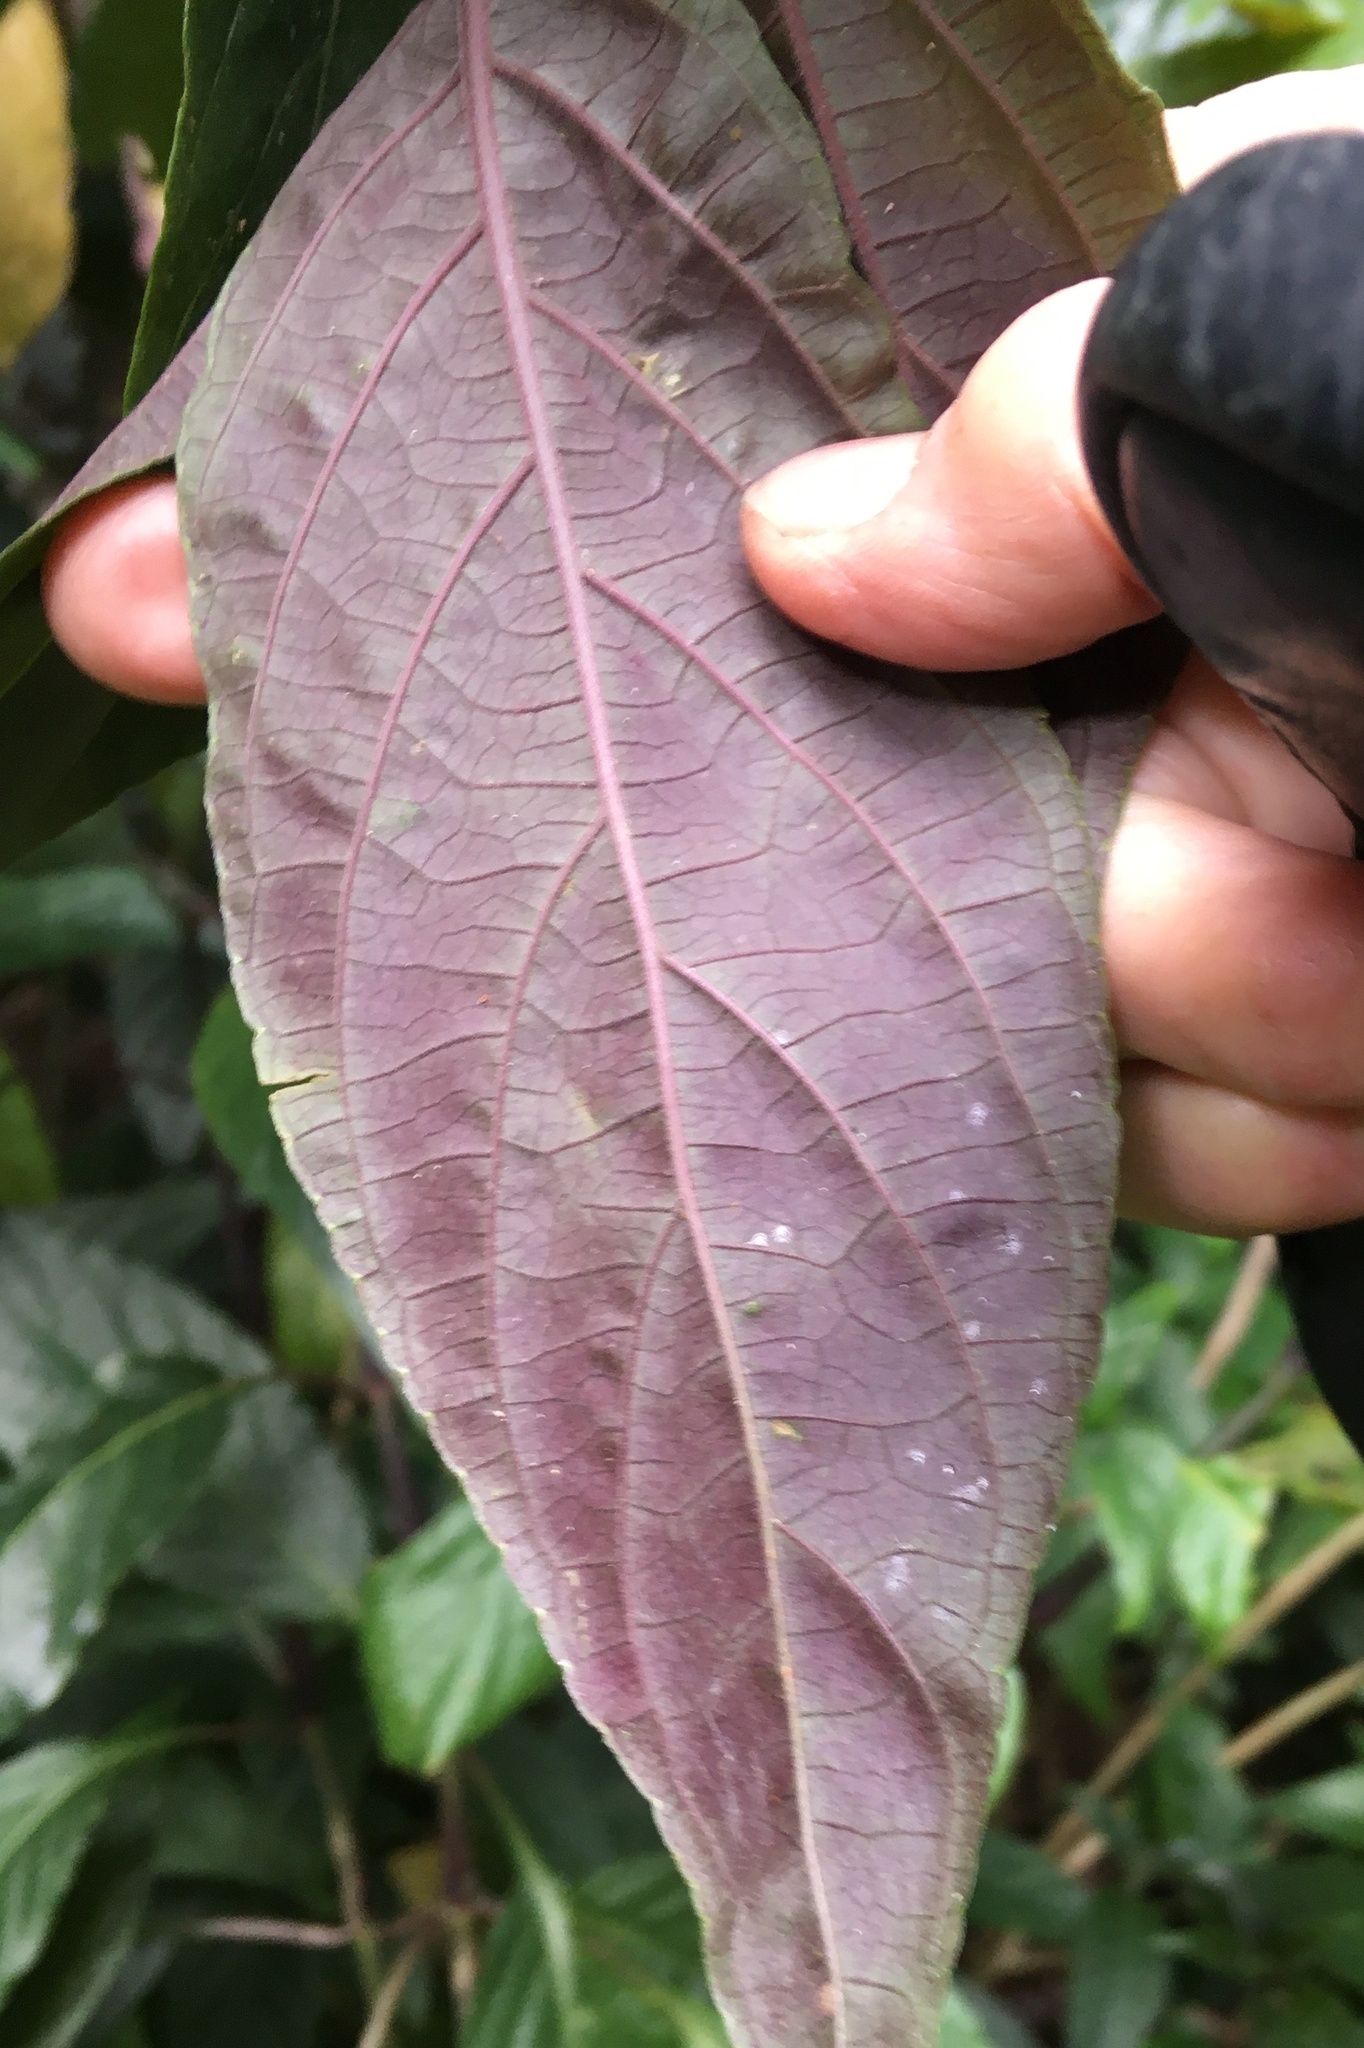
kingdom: Plantae
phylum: Tracheophyta
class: Magnoliopsida
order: Lamiales
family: Acanthaceae
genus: Justicia
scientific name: Justicia carnea
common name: Brazilian-plume
